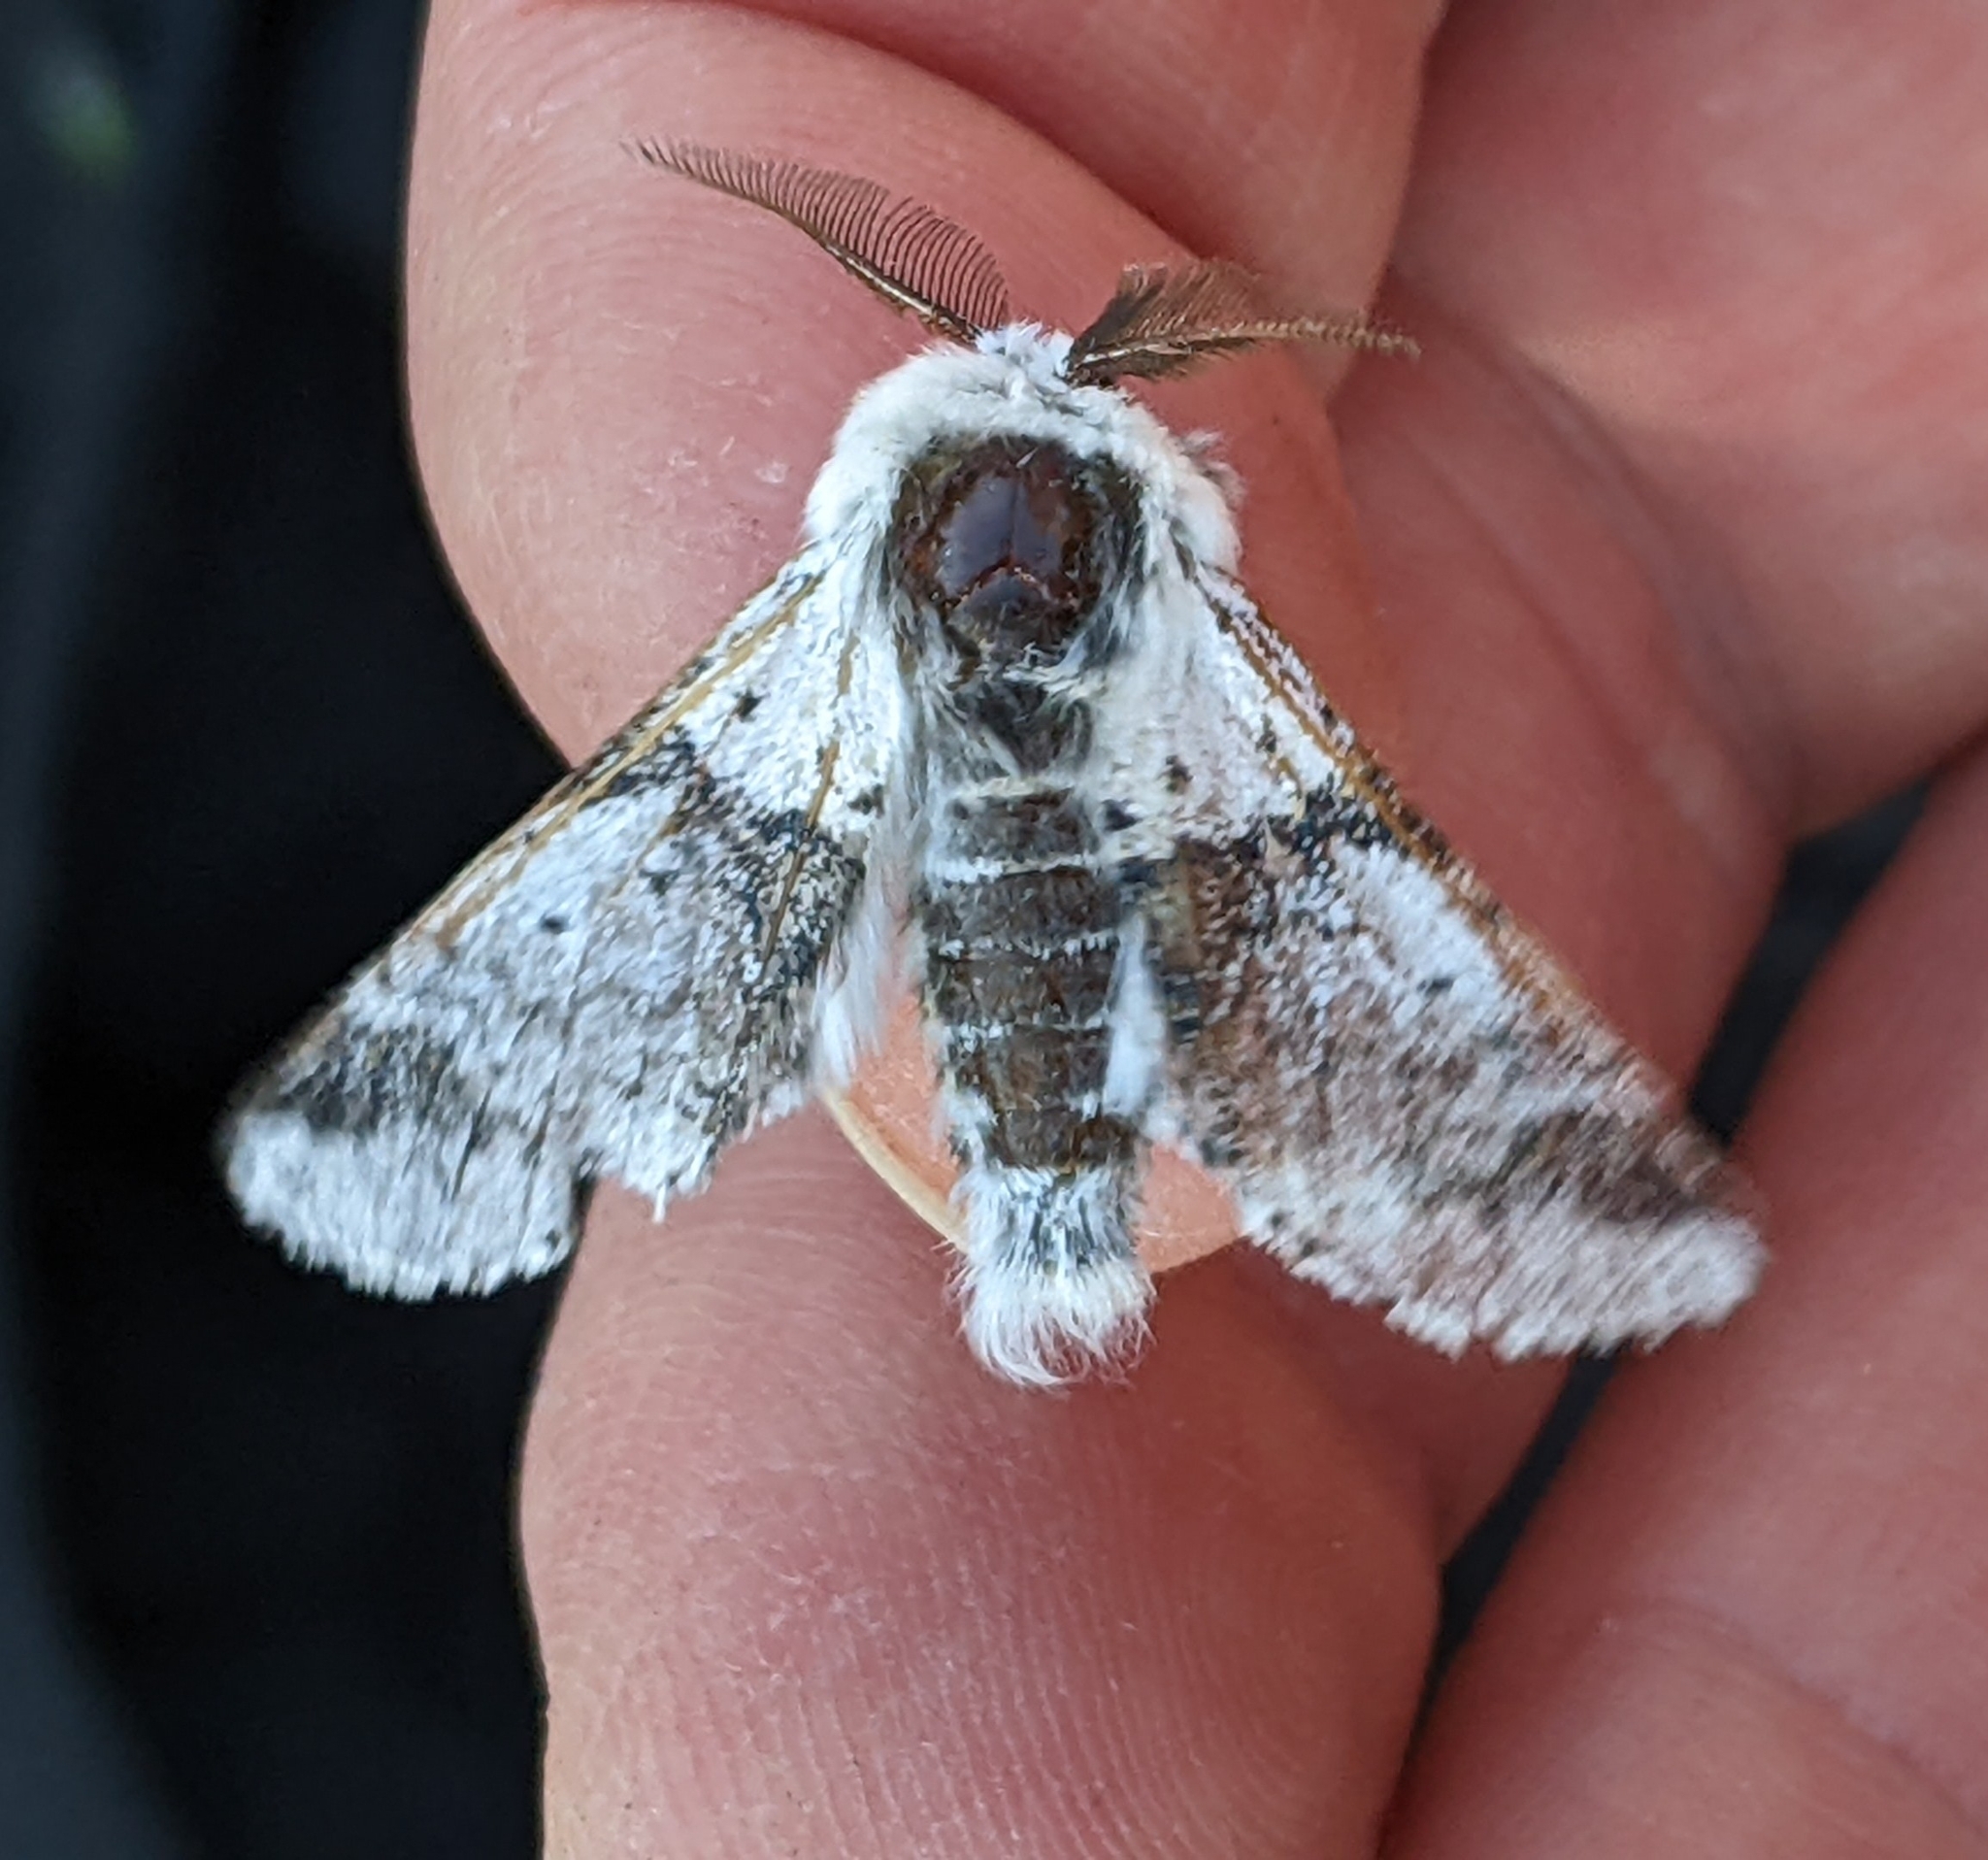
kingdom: Animalia
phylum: Arthropoda
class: Insecta
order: Lepidoptera
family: Notodontidae
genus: Furcula
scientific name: Furcula scolopendrina
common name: Zigzag furcula moth
